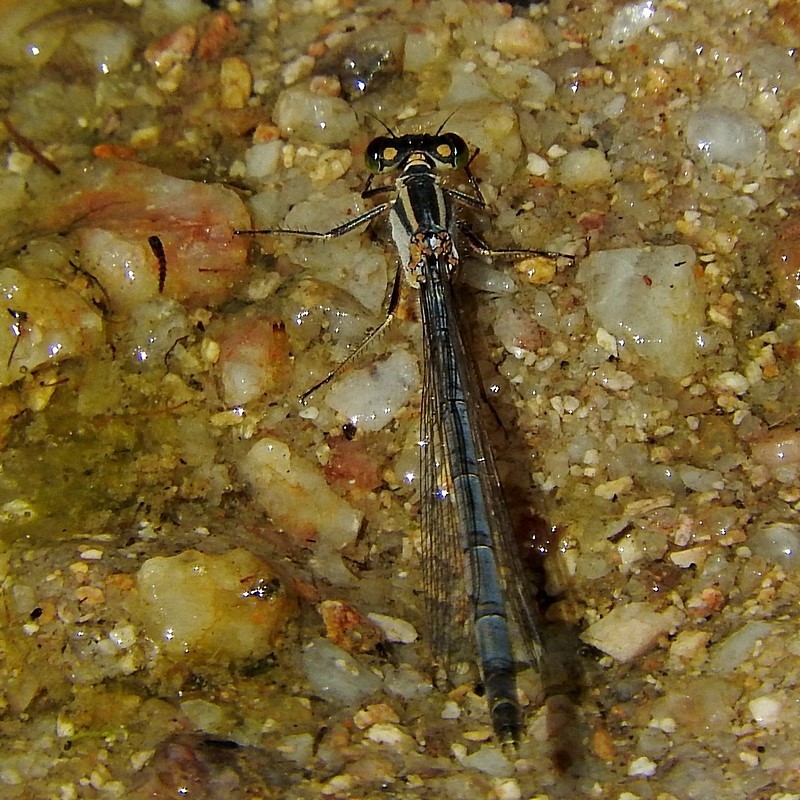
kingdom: Animalia
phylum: Arthropoda
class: Insecta
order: Odonata
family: Coenagrionidae
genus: Ischnura
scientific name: Ischnura heterosticta
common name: Common bluetail
